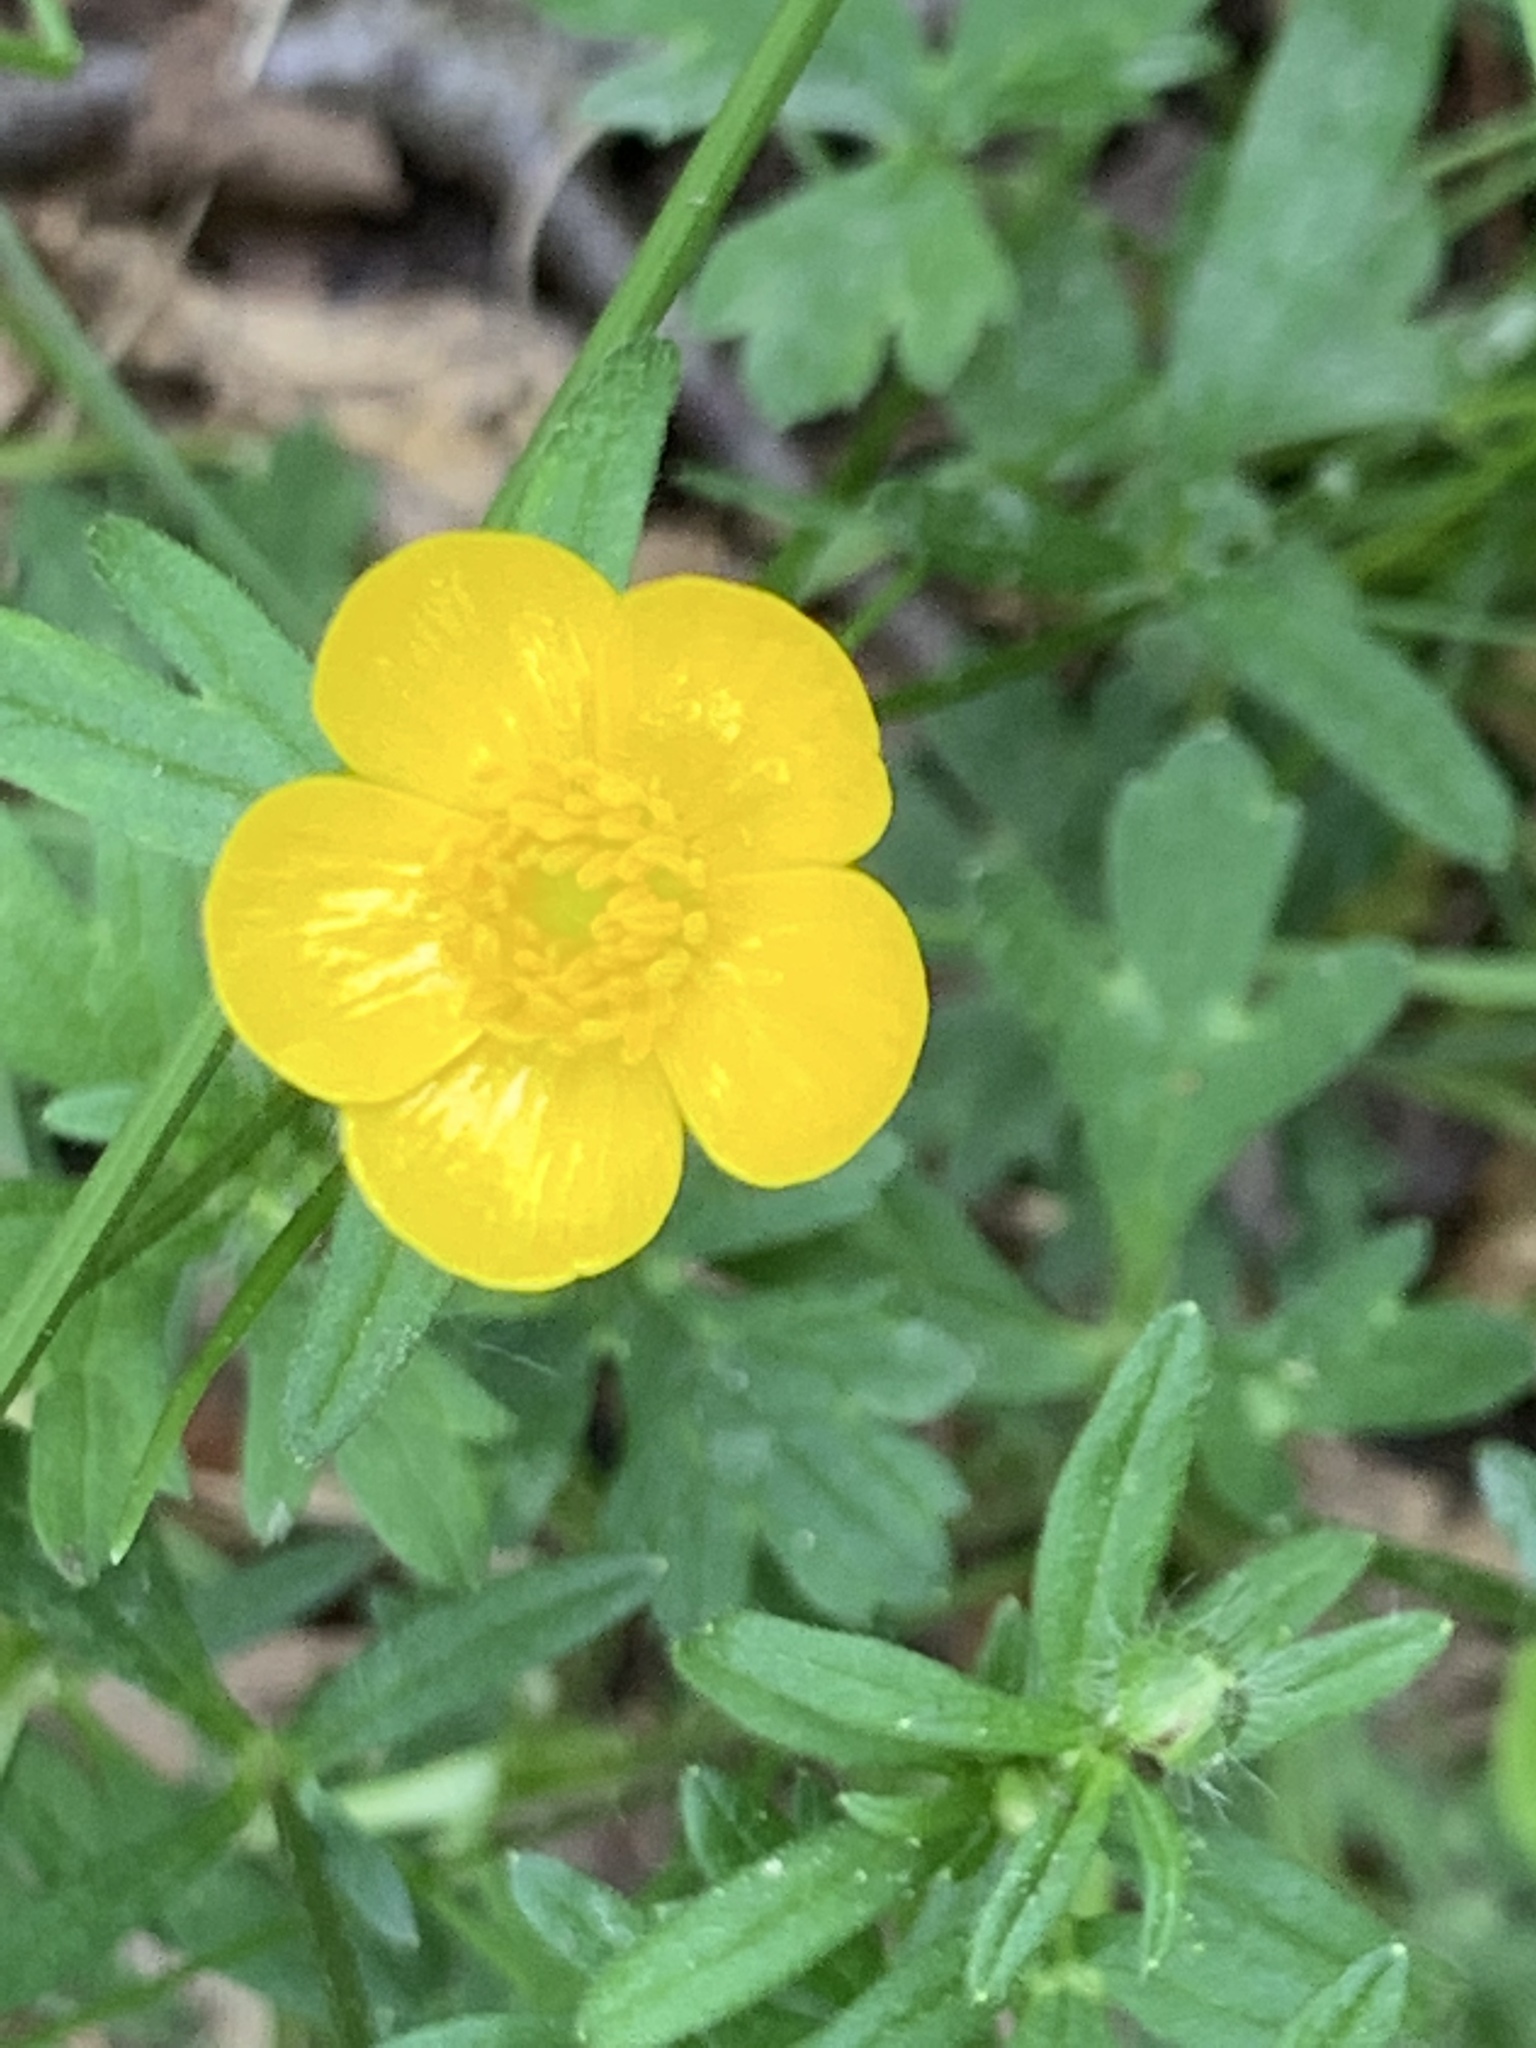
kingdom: Plantae
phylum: Tracheophyta
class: Magnoliopsida
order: Ranunculales
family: Ranunculaceae
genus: Ranunculus
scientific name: Ranunculus bulbosus
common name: Bulbous buttercup
